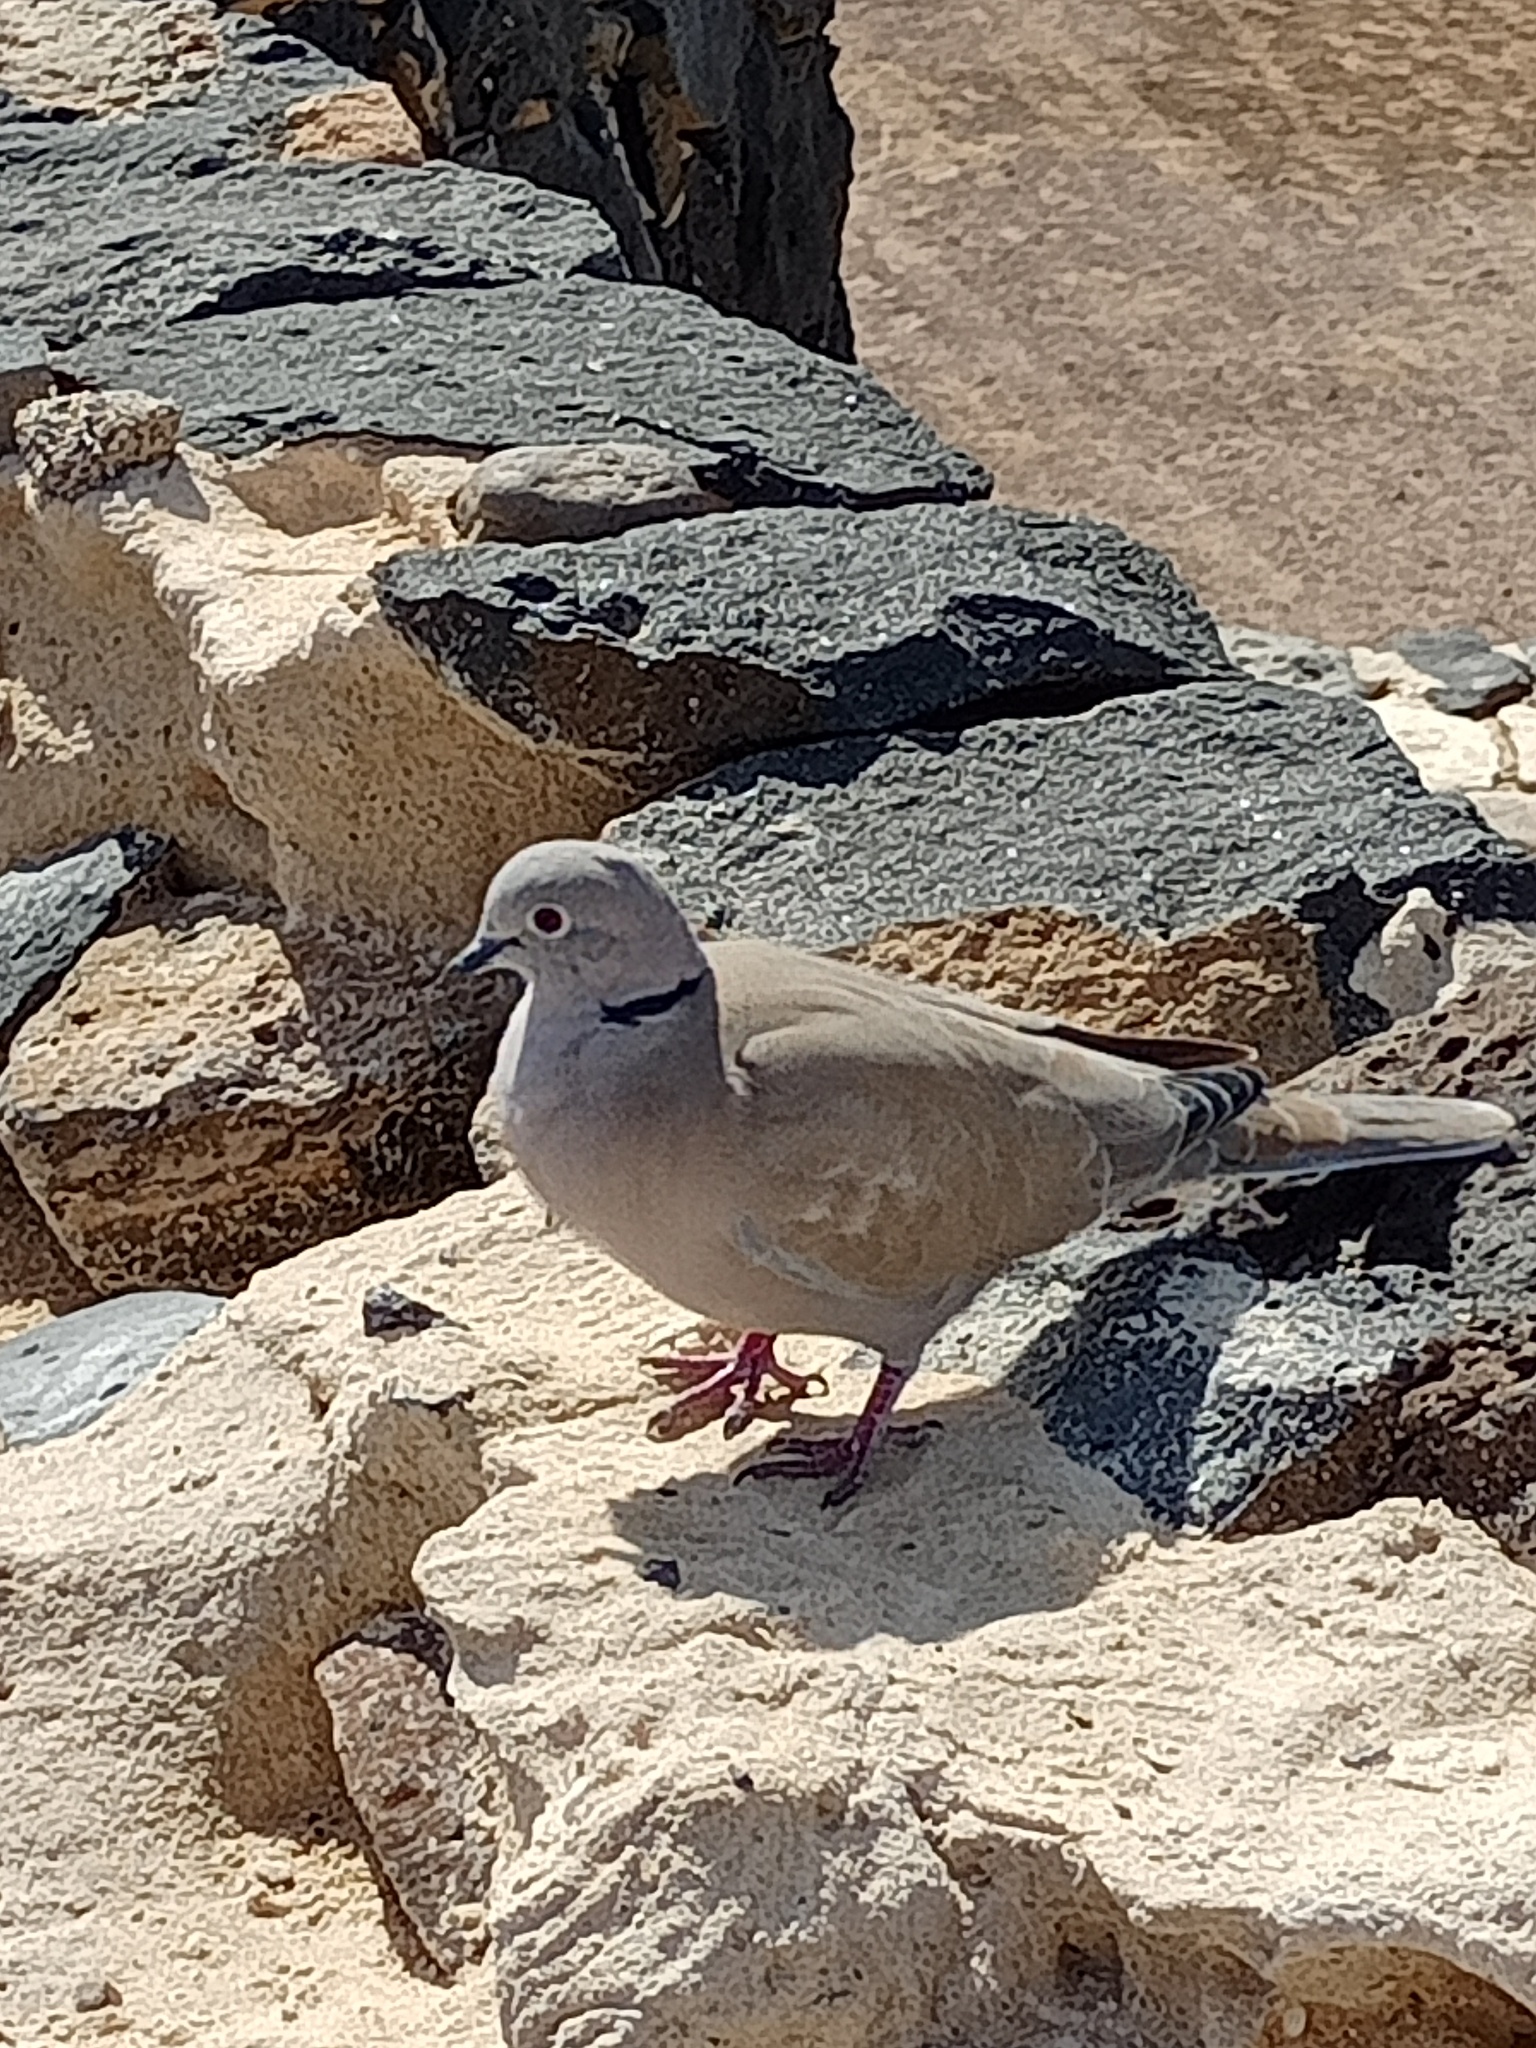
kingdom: Animalia
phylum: Chordata
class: Aves
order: Columbiformes
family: Columbidae
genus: Streptopelia
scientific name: Streptopelia decaocto
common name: Eurasian collared dove
